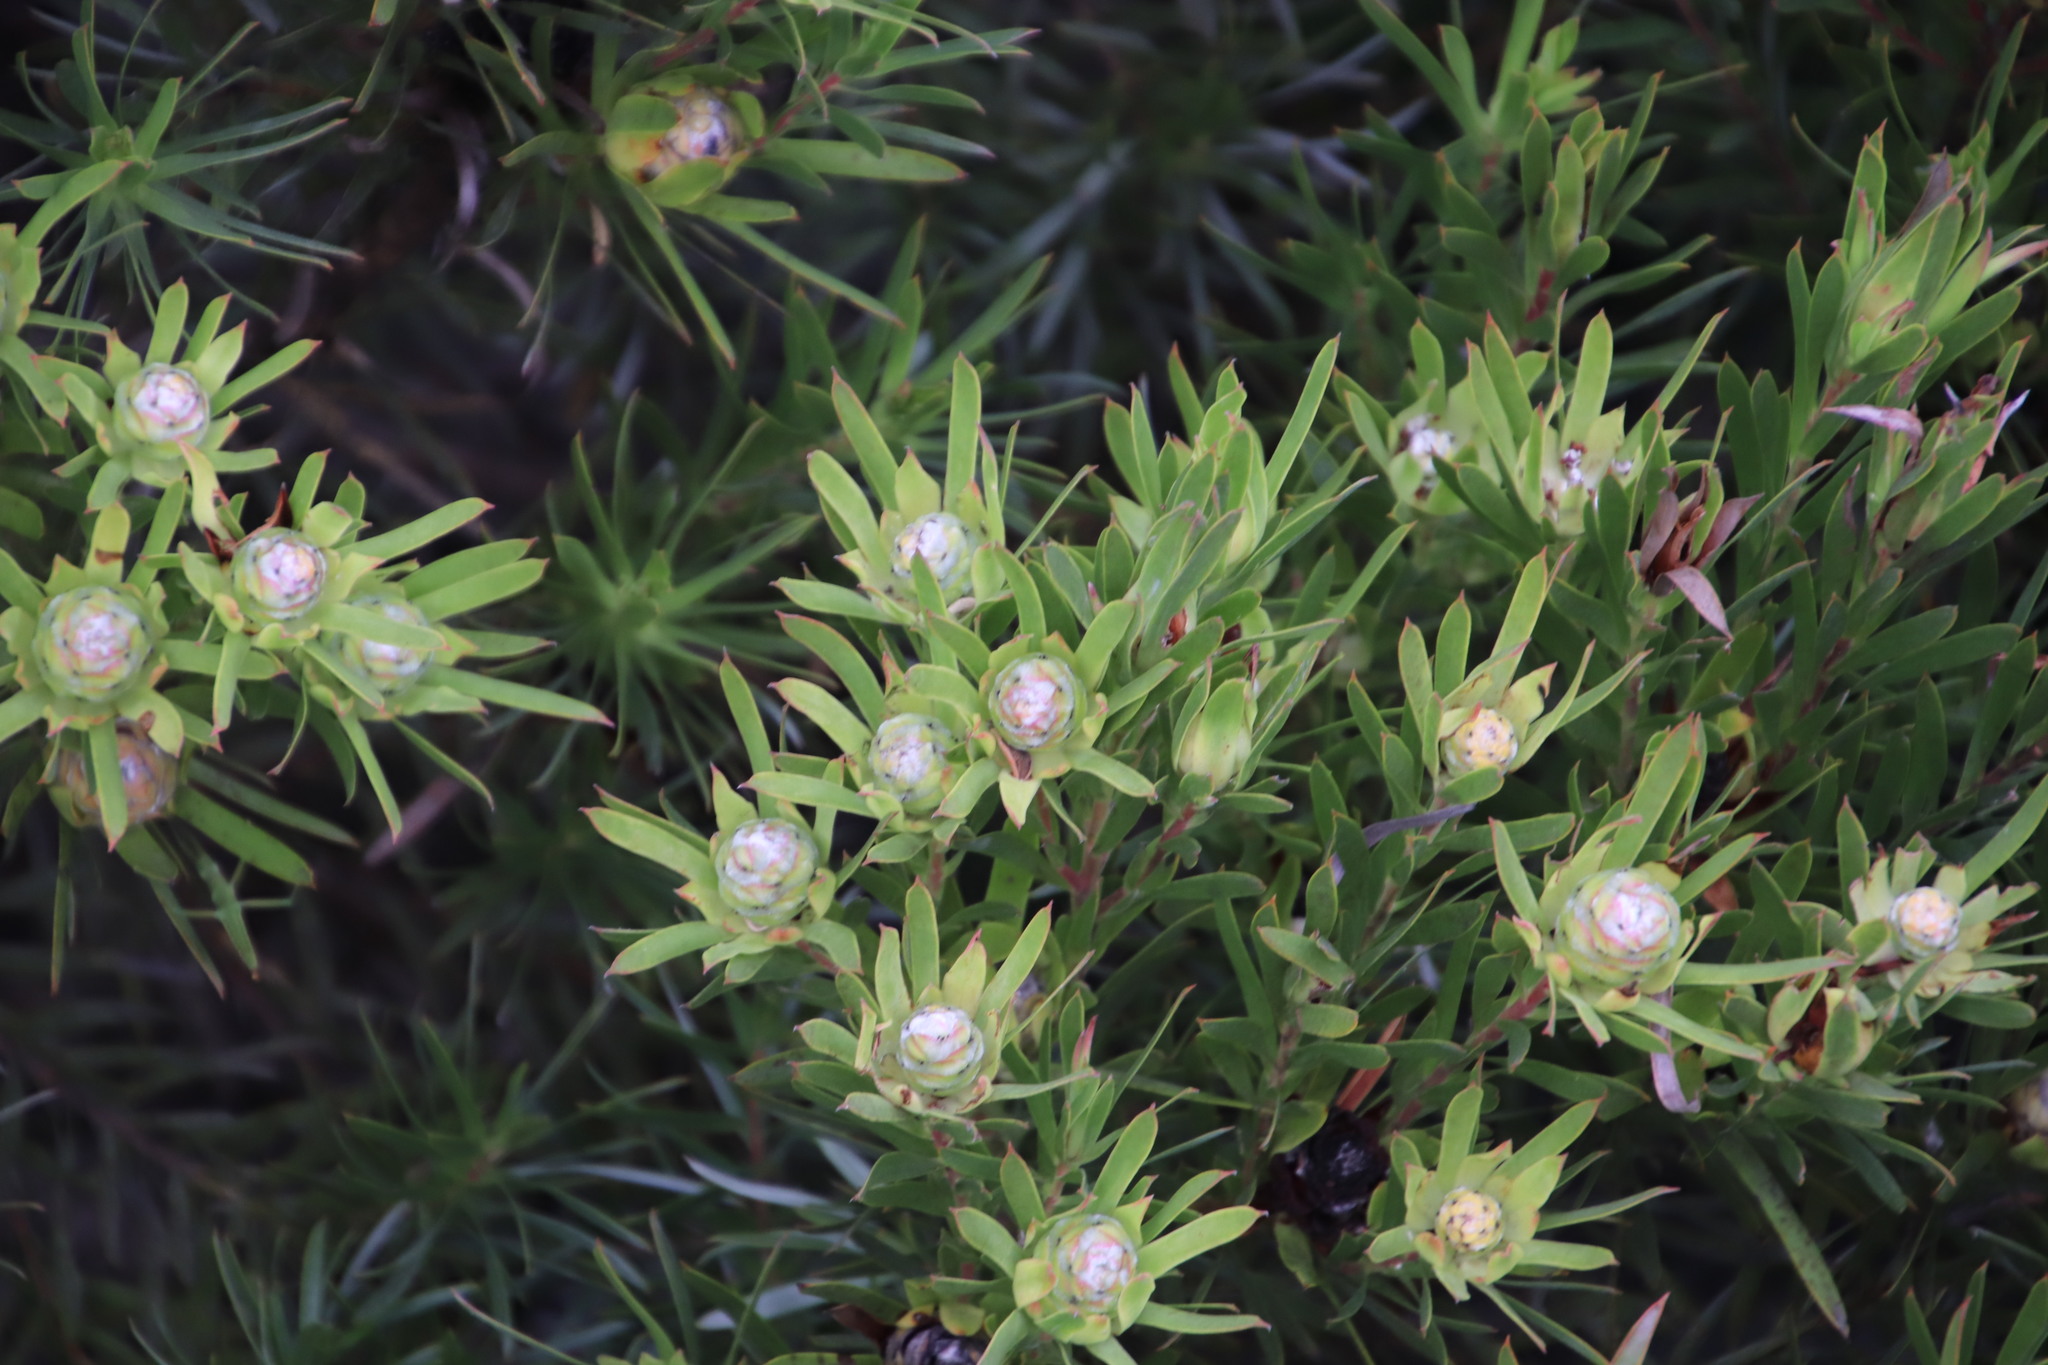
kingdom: Plantae
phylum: Tracheophyta
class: Magnoliopsida
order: Proteales
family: Proteaceae
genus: Leucadendron
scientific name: Leucadendron xanthoconus
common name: Sickle-leaf conebush
